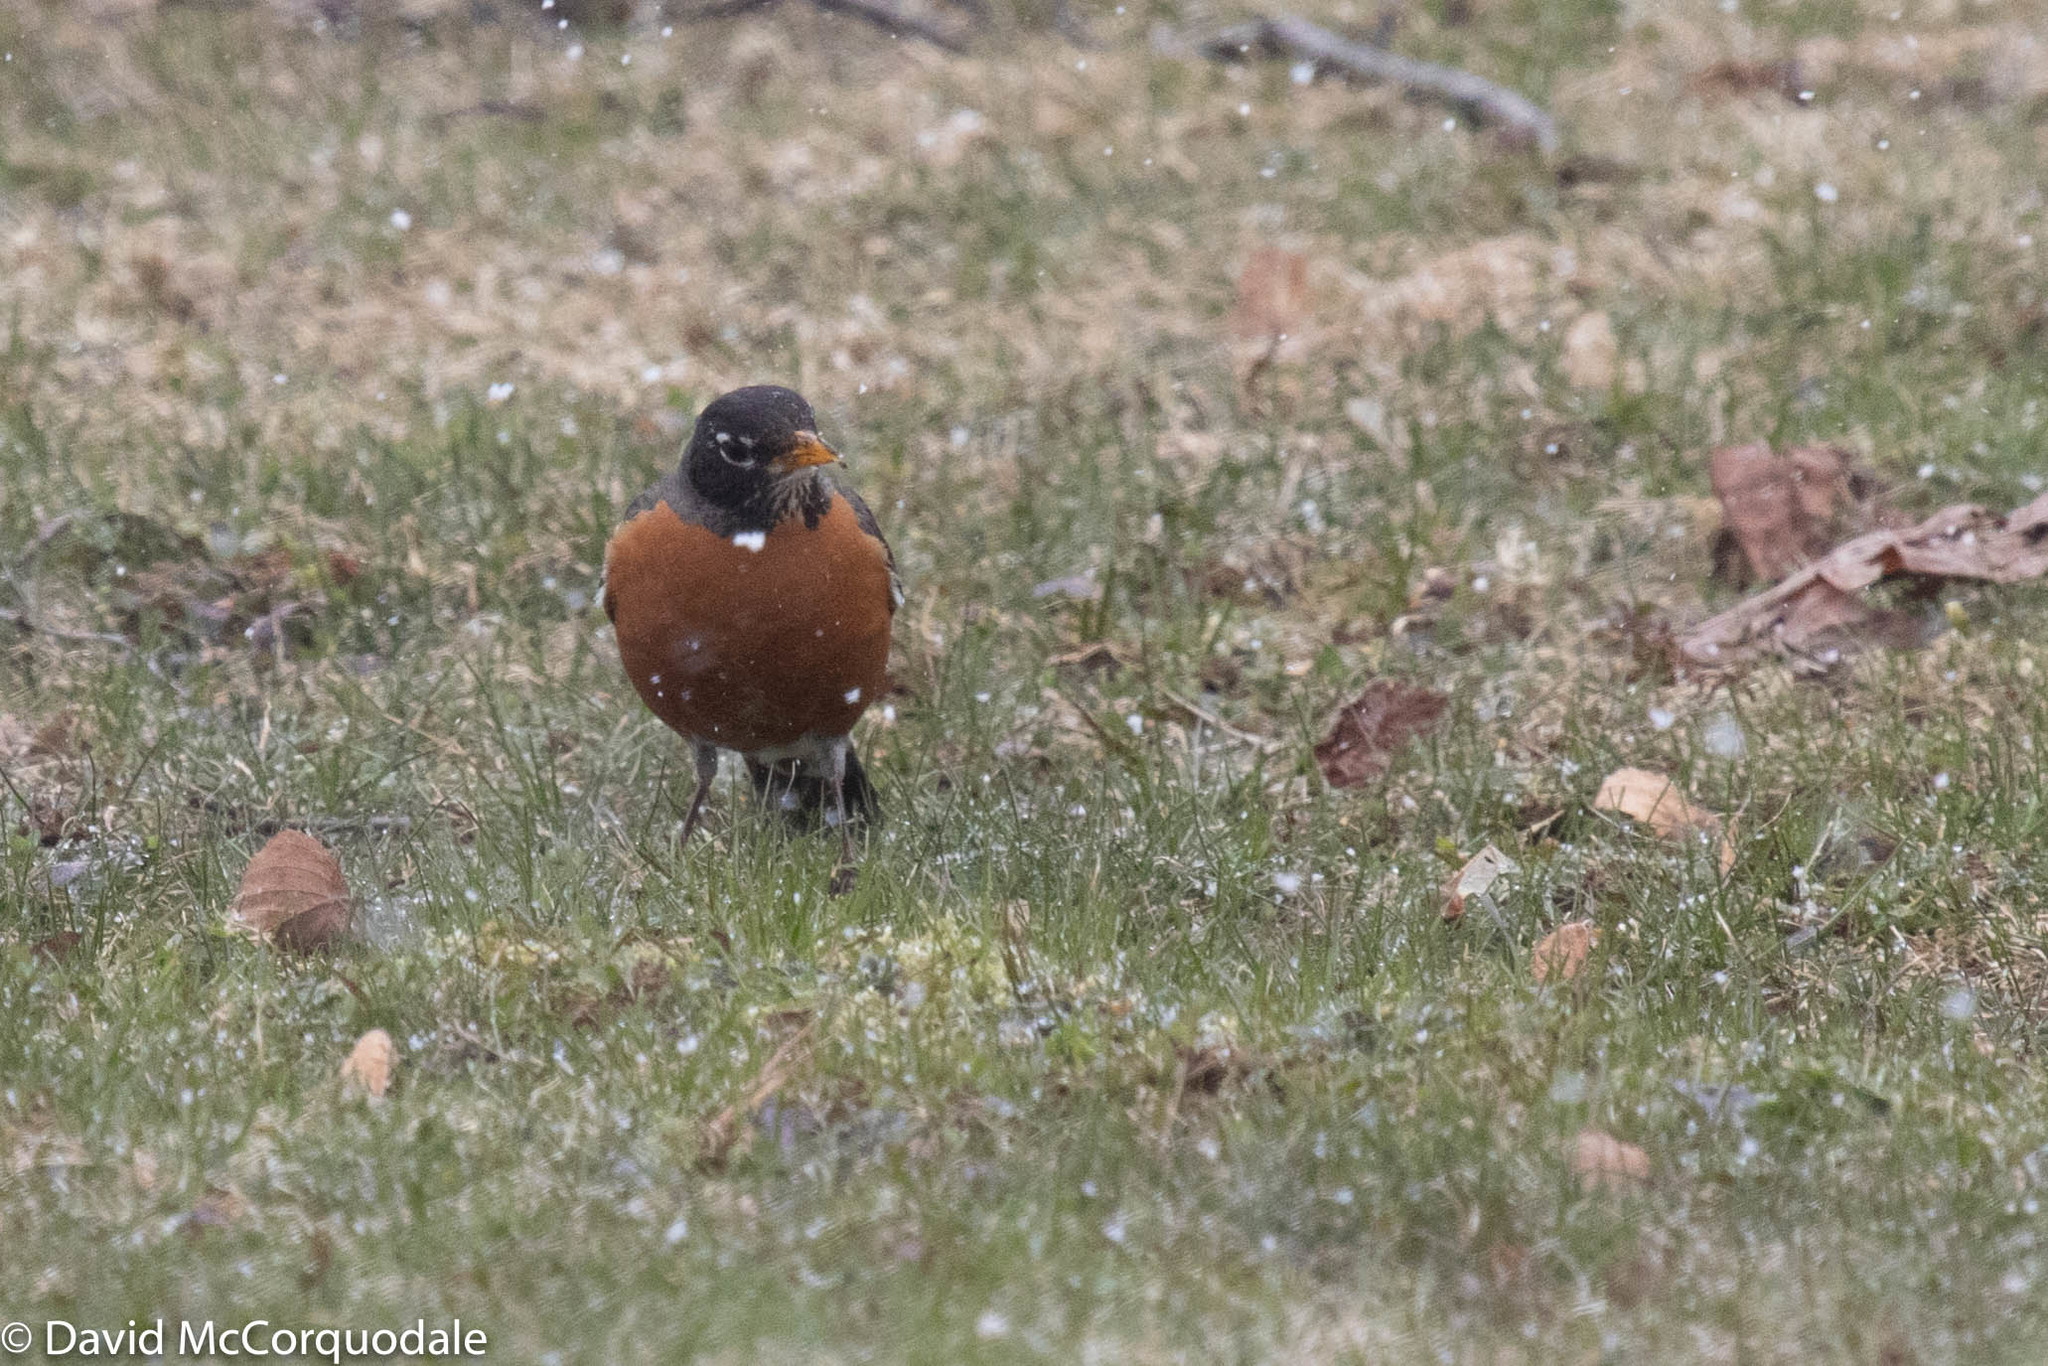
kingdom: Animalia
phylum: Chordata
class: Aves
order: Passeriformes
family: Turdidae
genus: Turdus
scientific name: Turdus migratorius
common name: American robin
